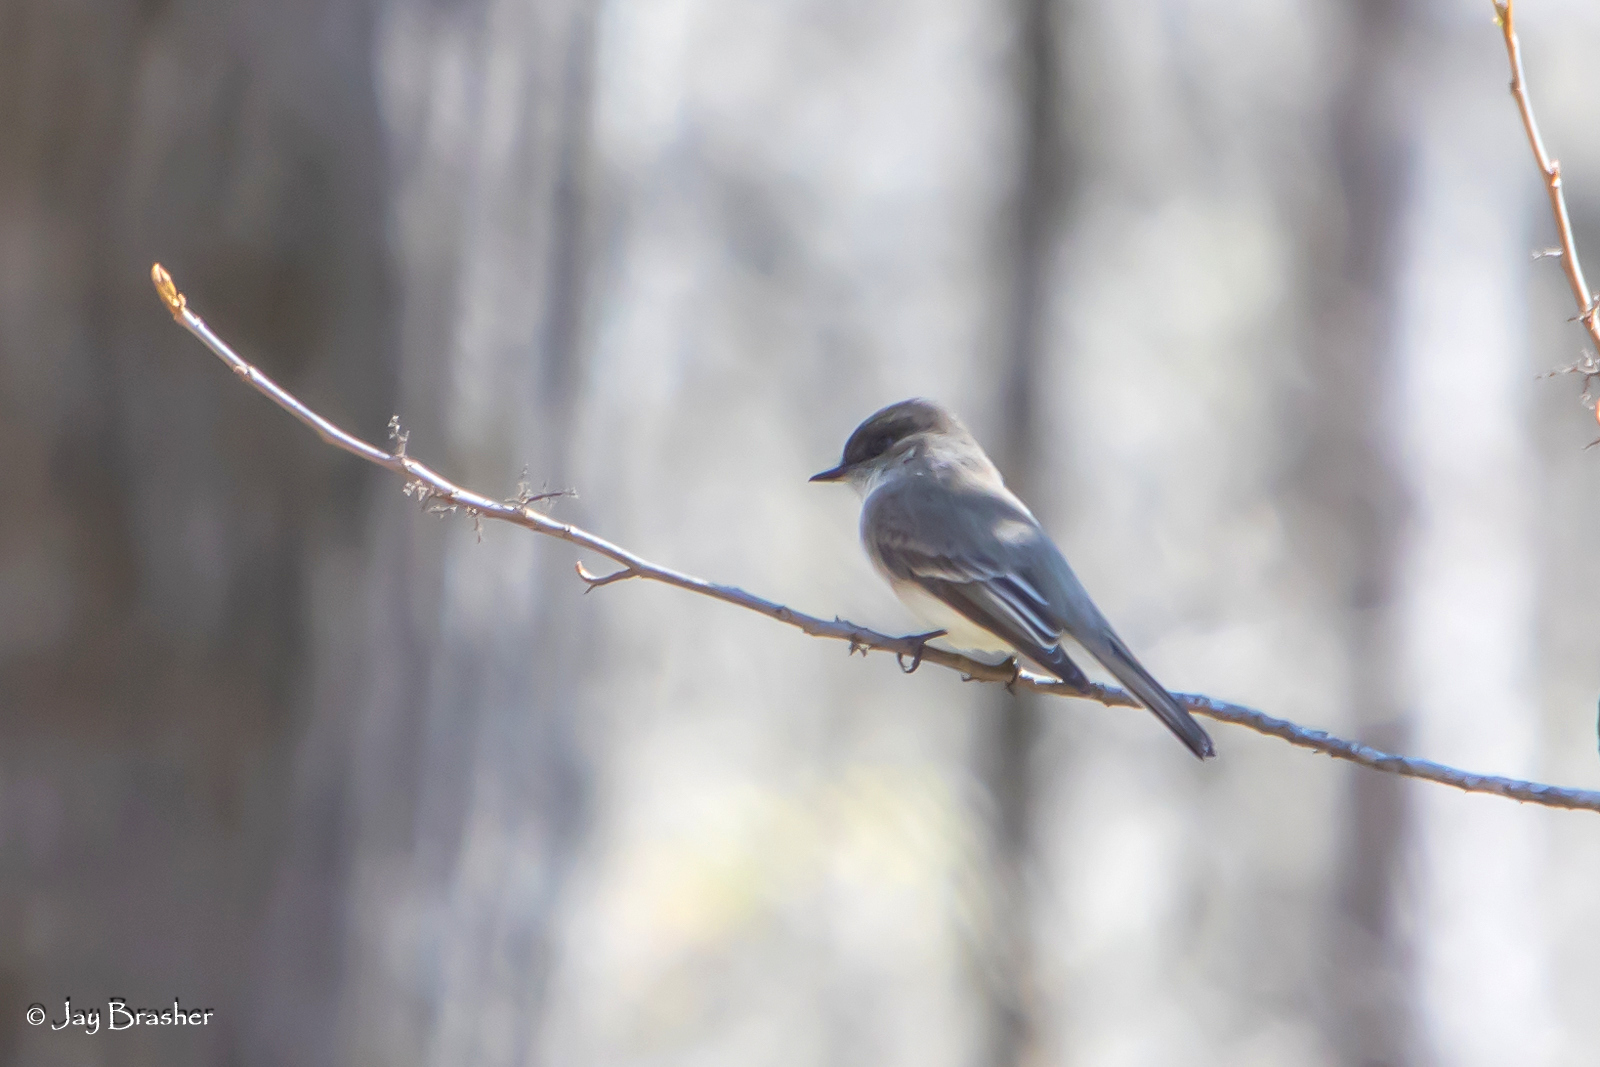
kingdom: Animalia
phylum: Chordata
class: Aves
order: Passeriformes
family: Tyrannidae
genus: Sayornis
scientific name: Sayornis phoebe
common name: Eastern phoebe
